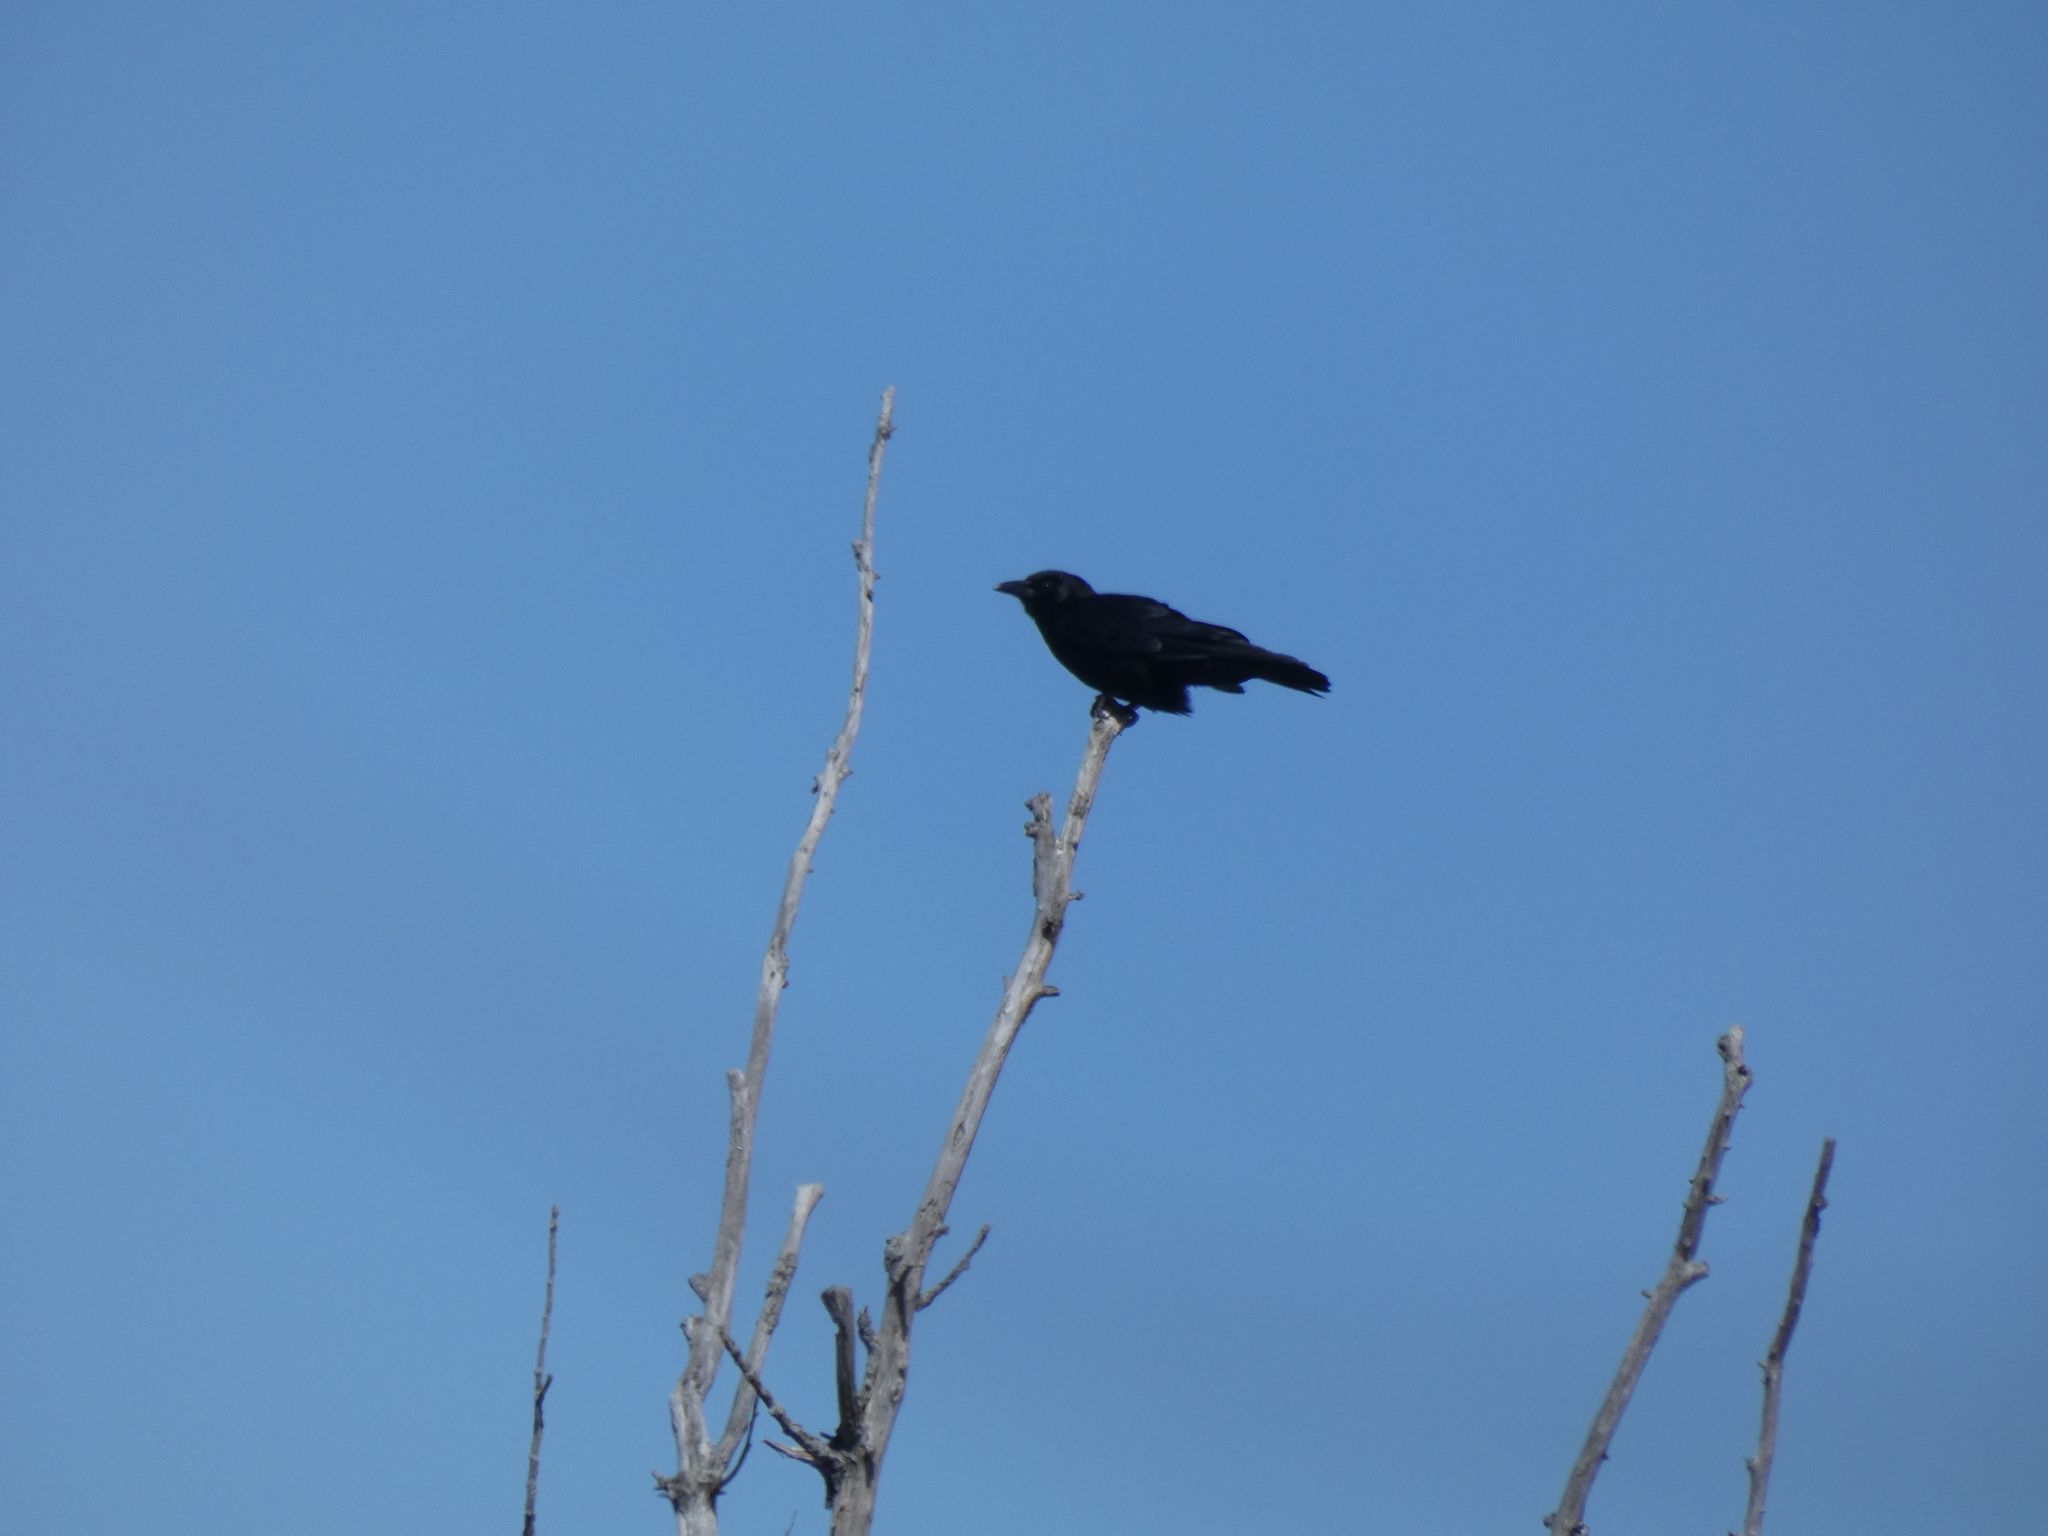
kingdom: Animalia
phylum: Chordata
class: Aves
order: Passeriformes
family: Corvidae
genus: Corvus
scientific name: Corvus brachyrhynchos
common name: American crow
